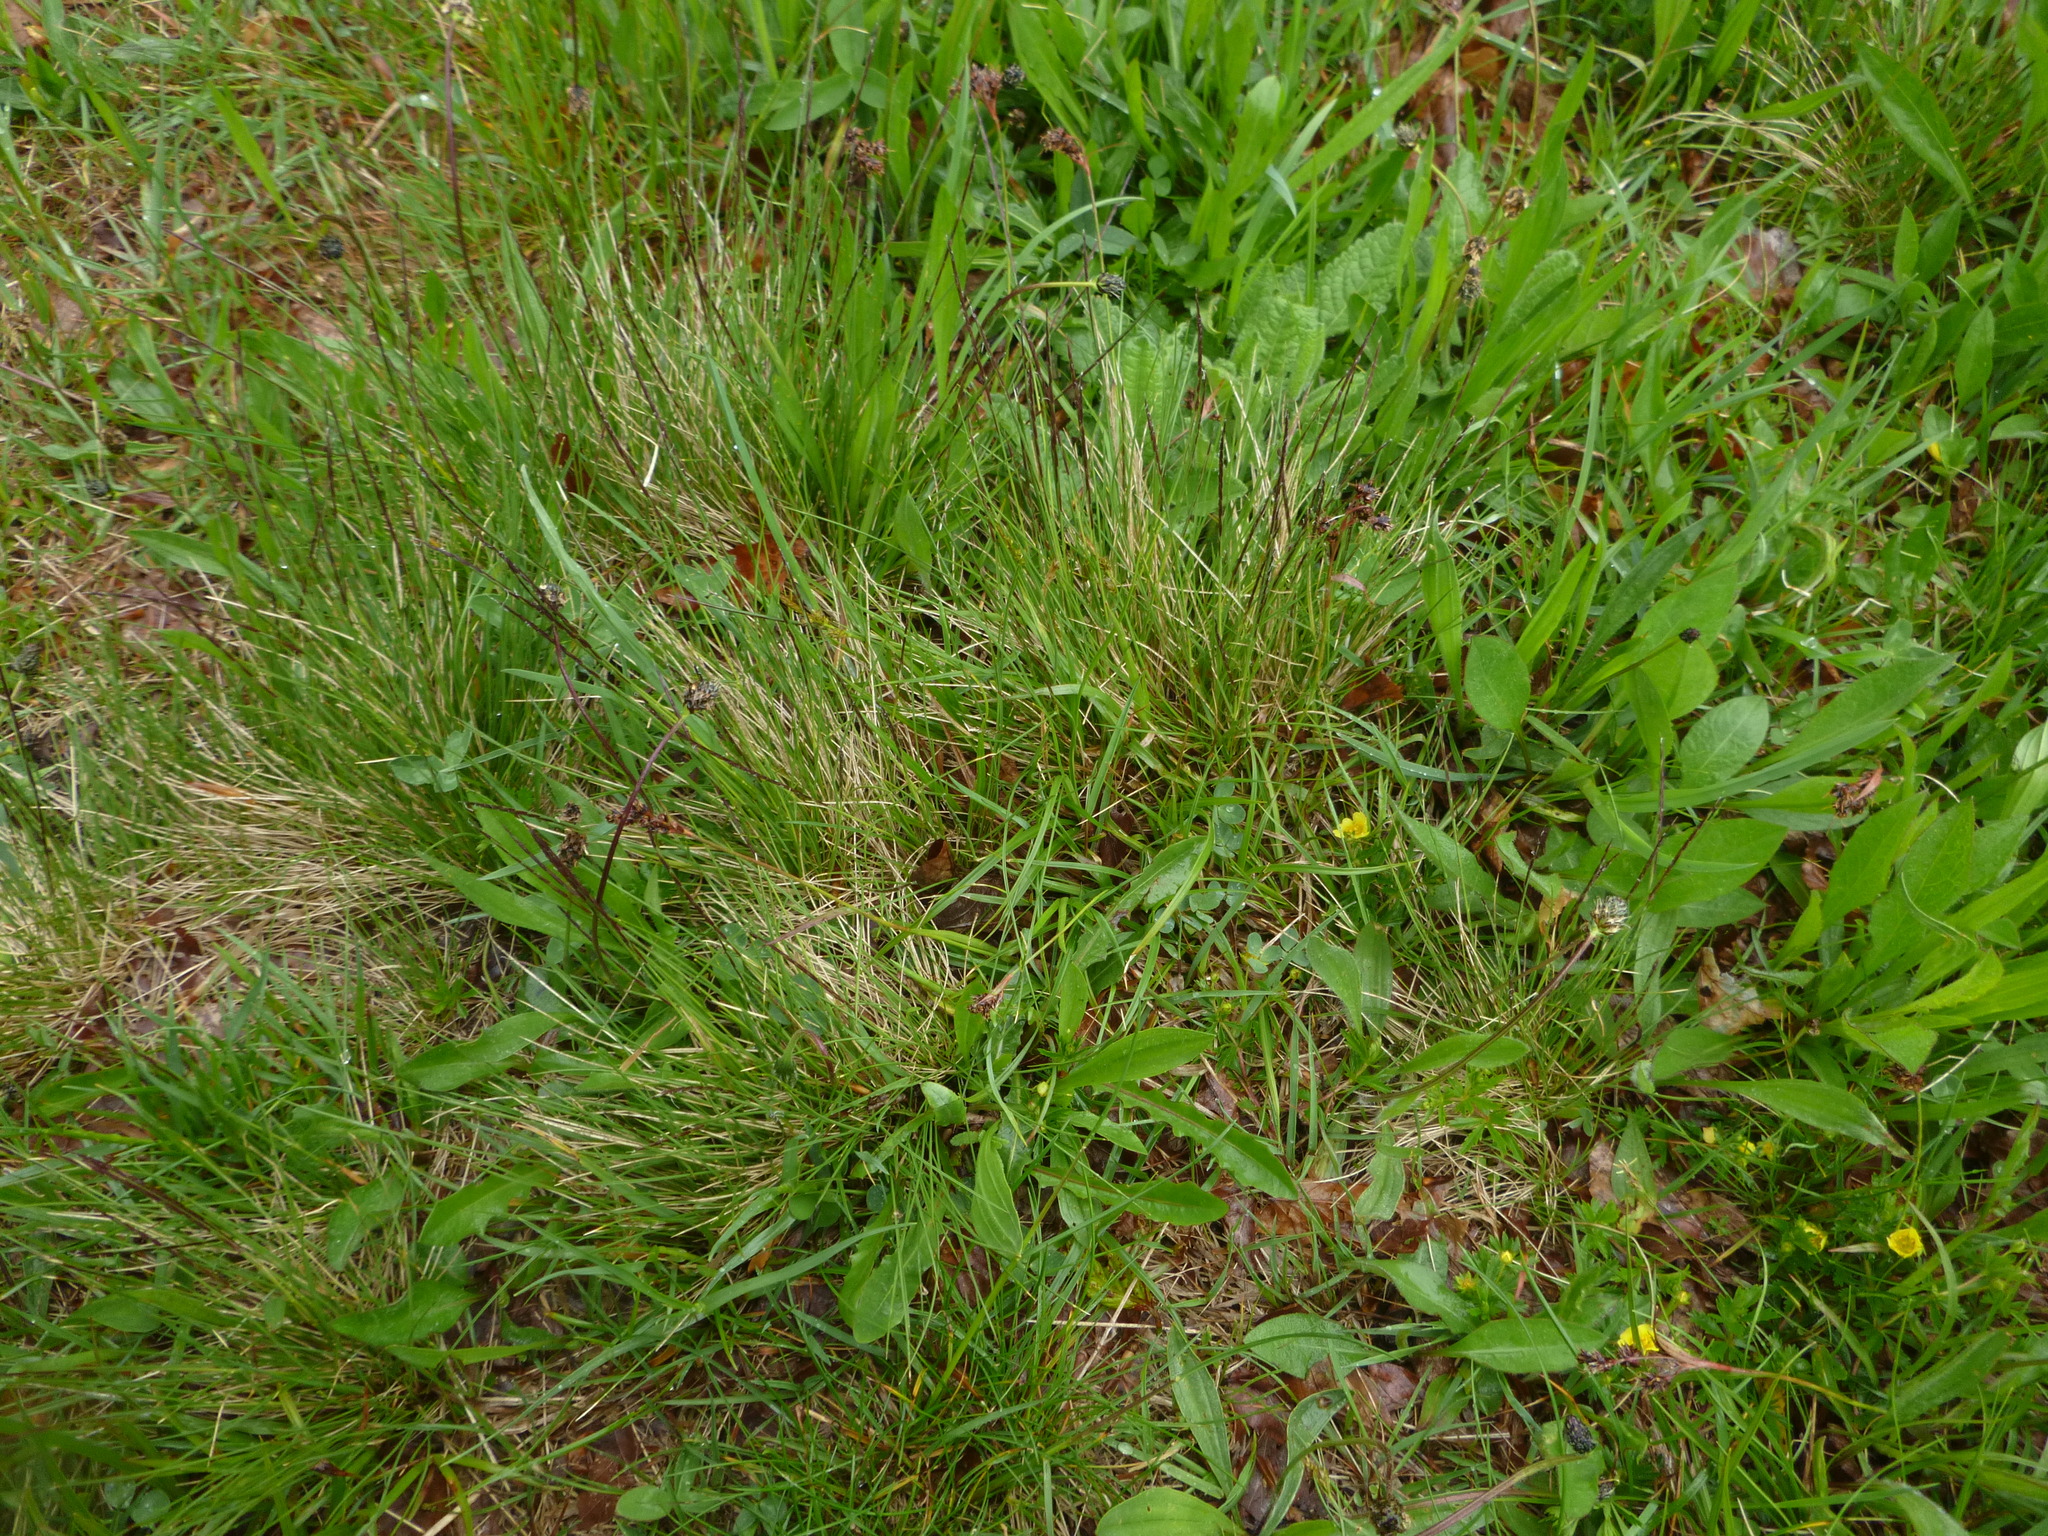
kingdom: Plantae
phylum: Tracheophyta
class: Liliopsida
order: Poales
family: Poaceae
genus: Nardus
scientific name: Nardus stricta
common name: Mat-grass
